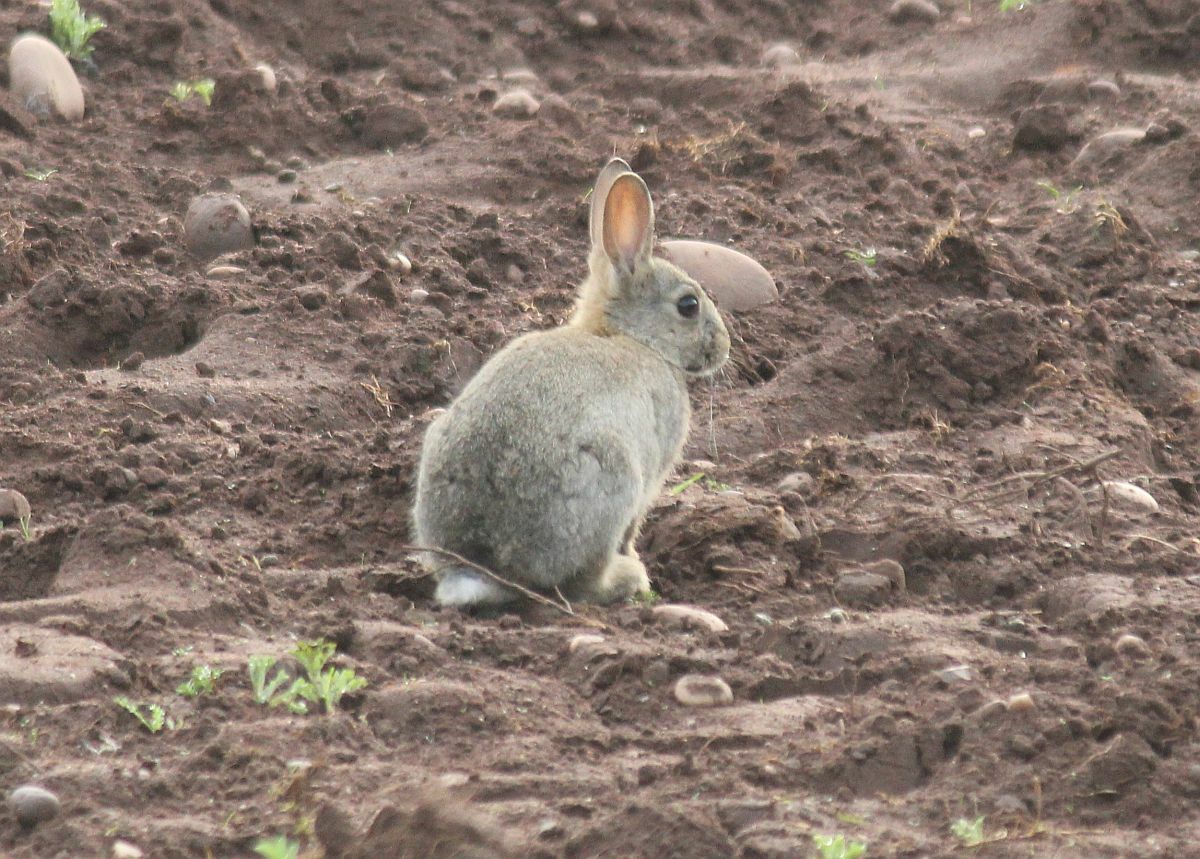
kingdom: Animalia
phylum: Chordata
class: Mammalia
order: Lagomorpha
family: Leporidae
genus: Oryctolagus
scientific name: Oryctolagus cuniculus
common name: European rabbit
